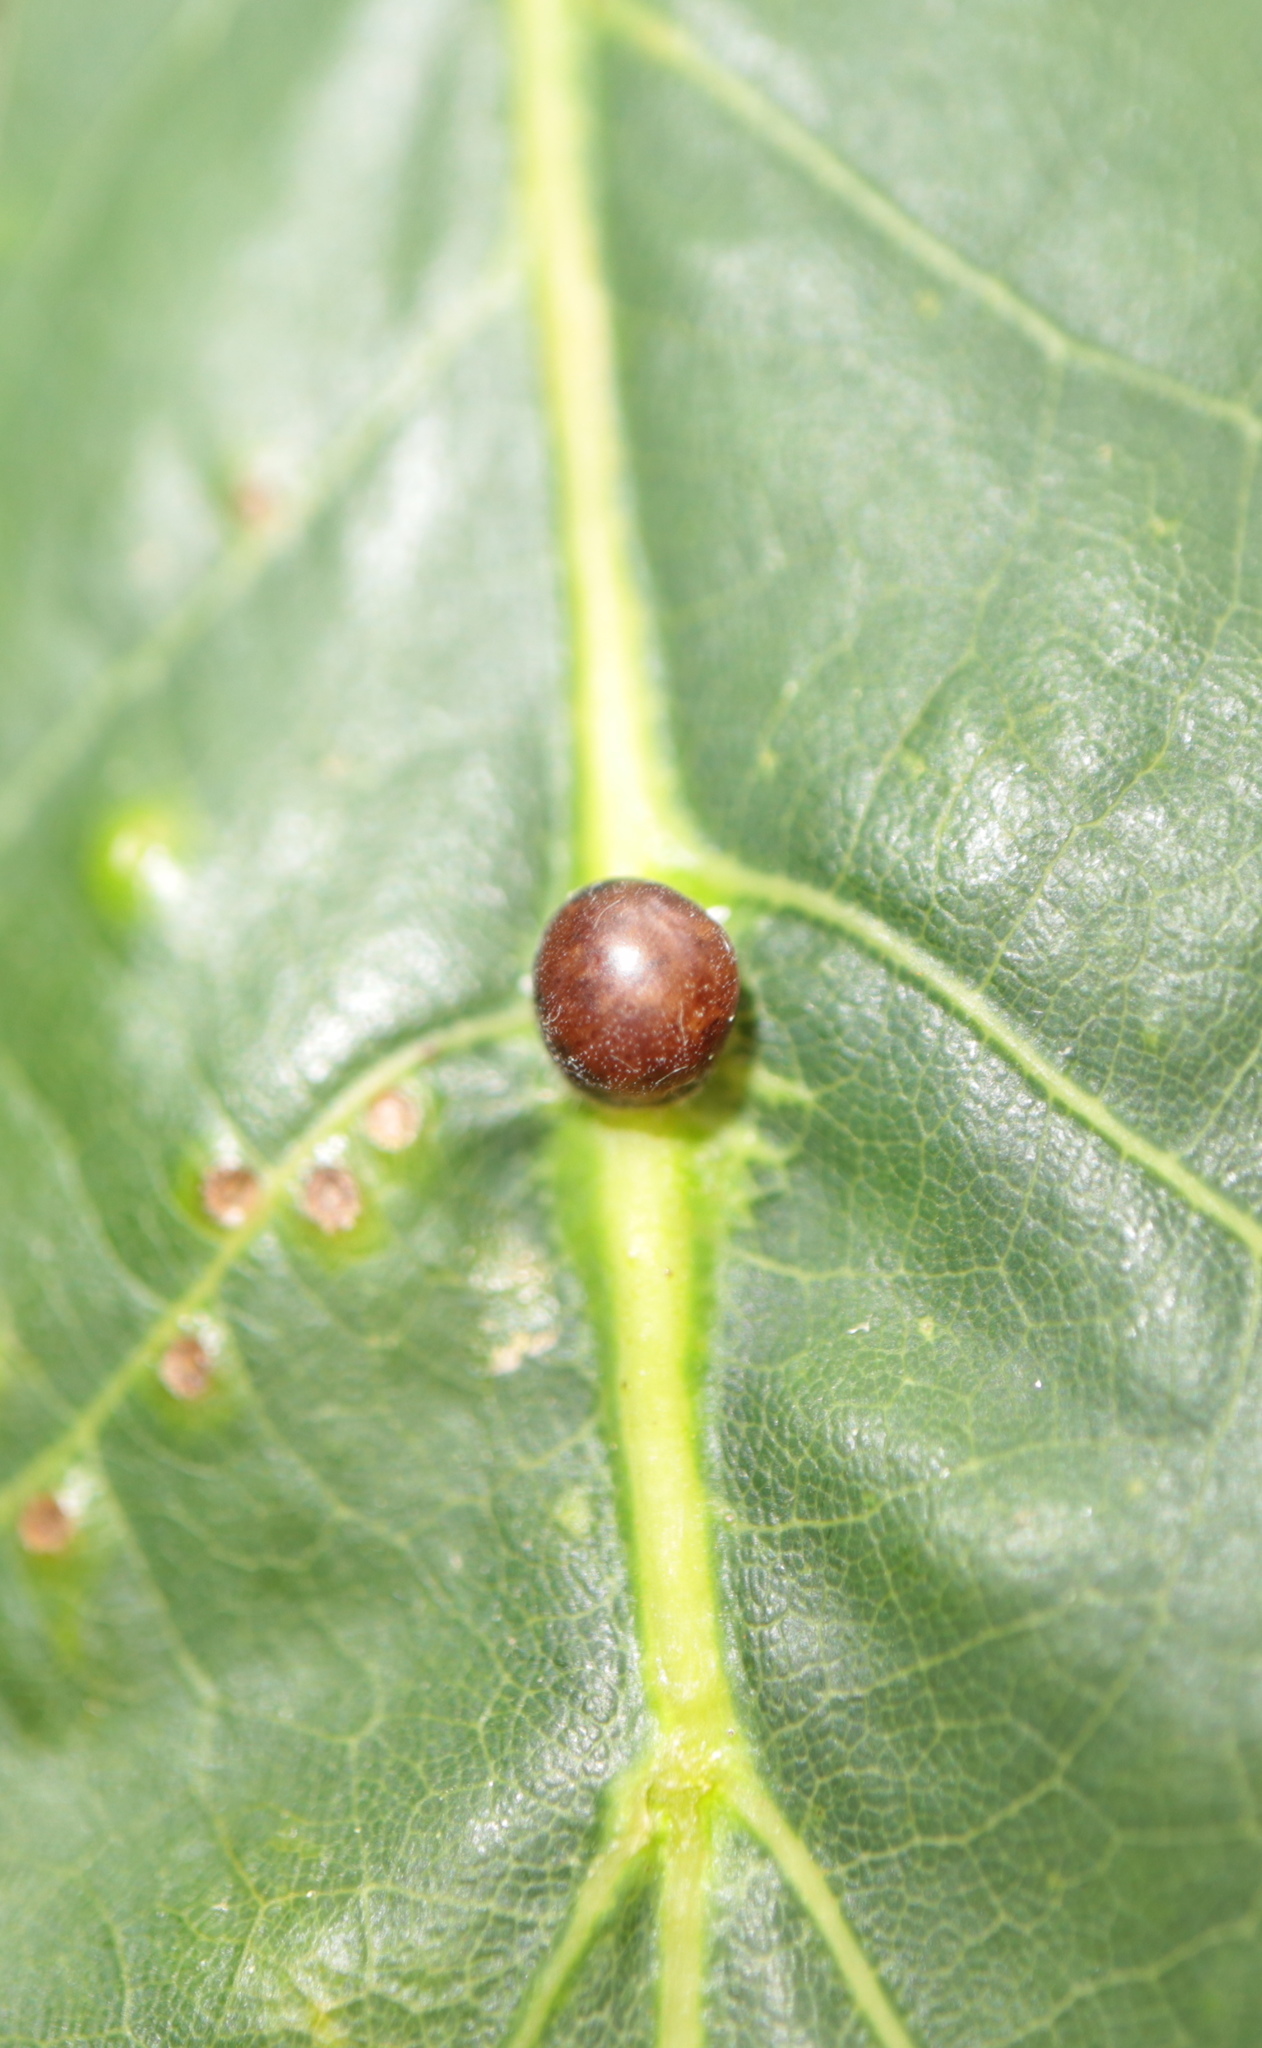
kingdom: Animalia
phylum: Arthropoda
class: Insecta
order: Hemiptera
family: Kermesidae
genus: Nanokermes
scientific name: Nanokermes folium
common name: Leaf kermes
